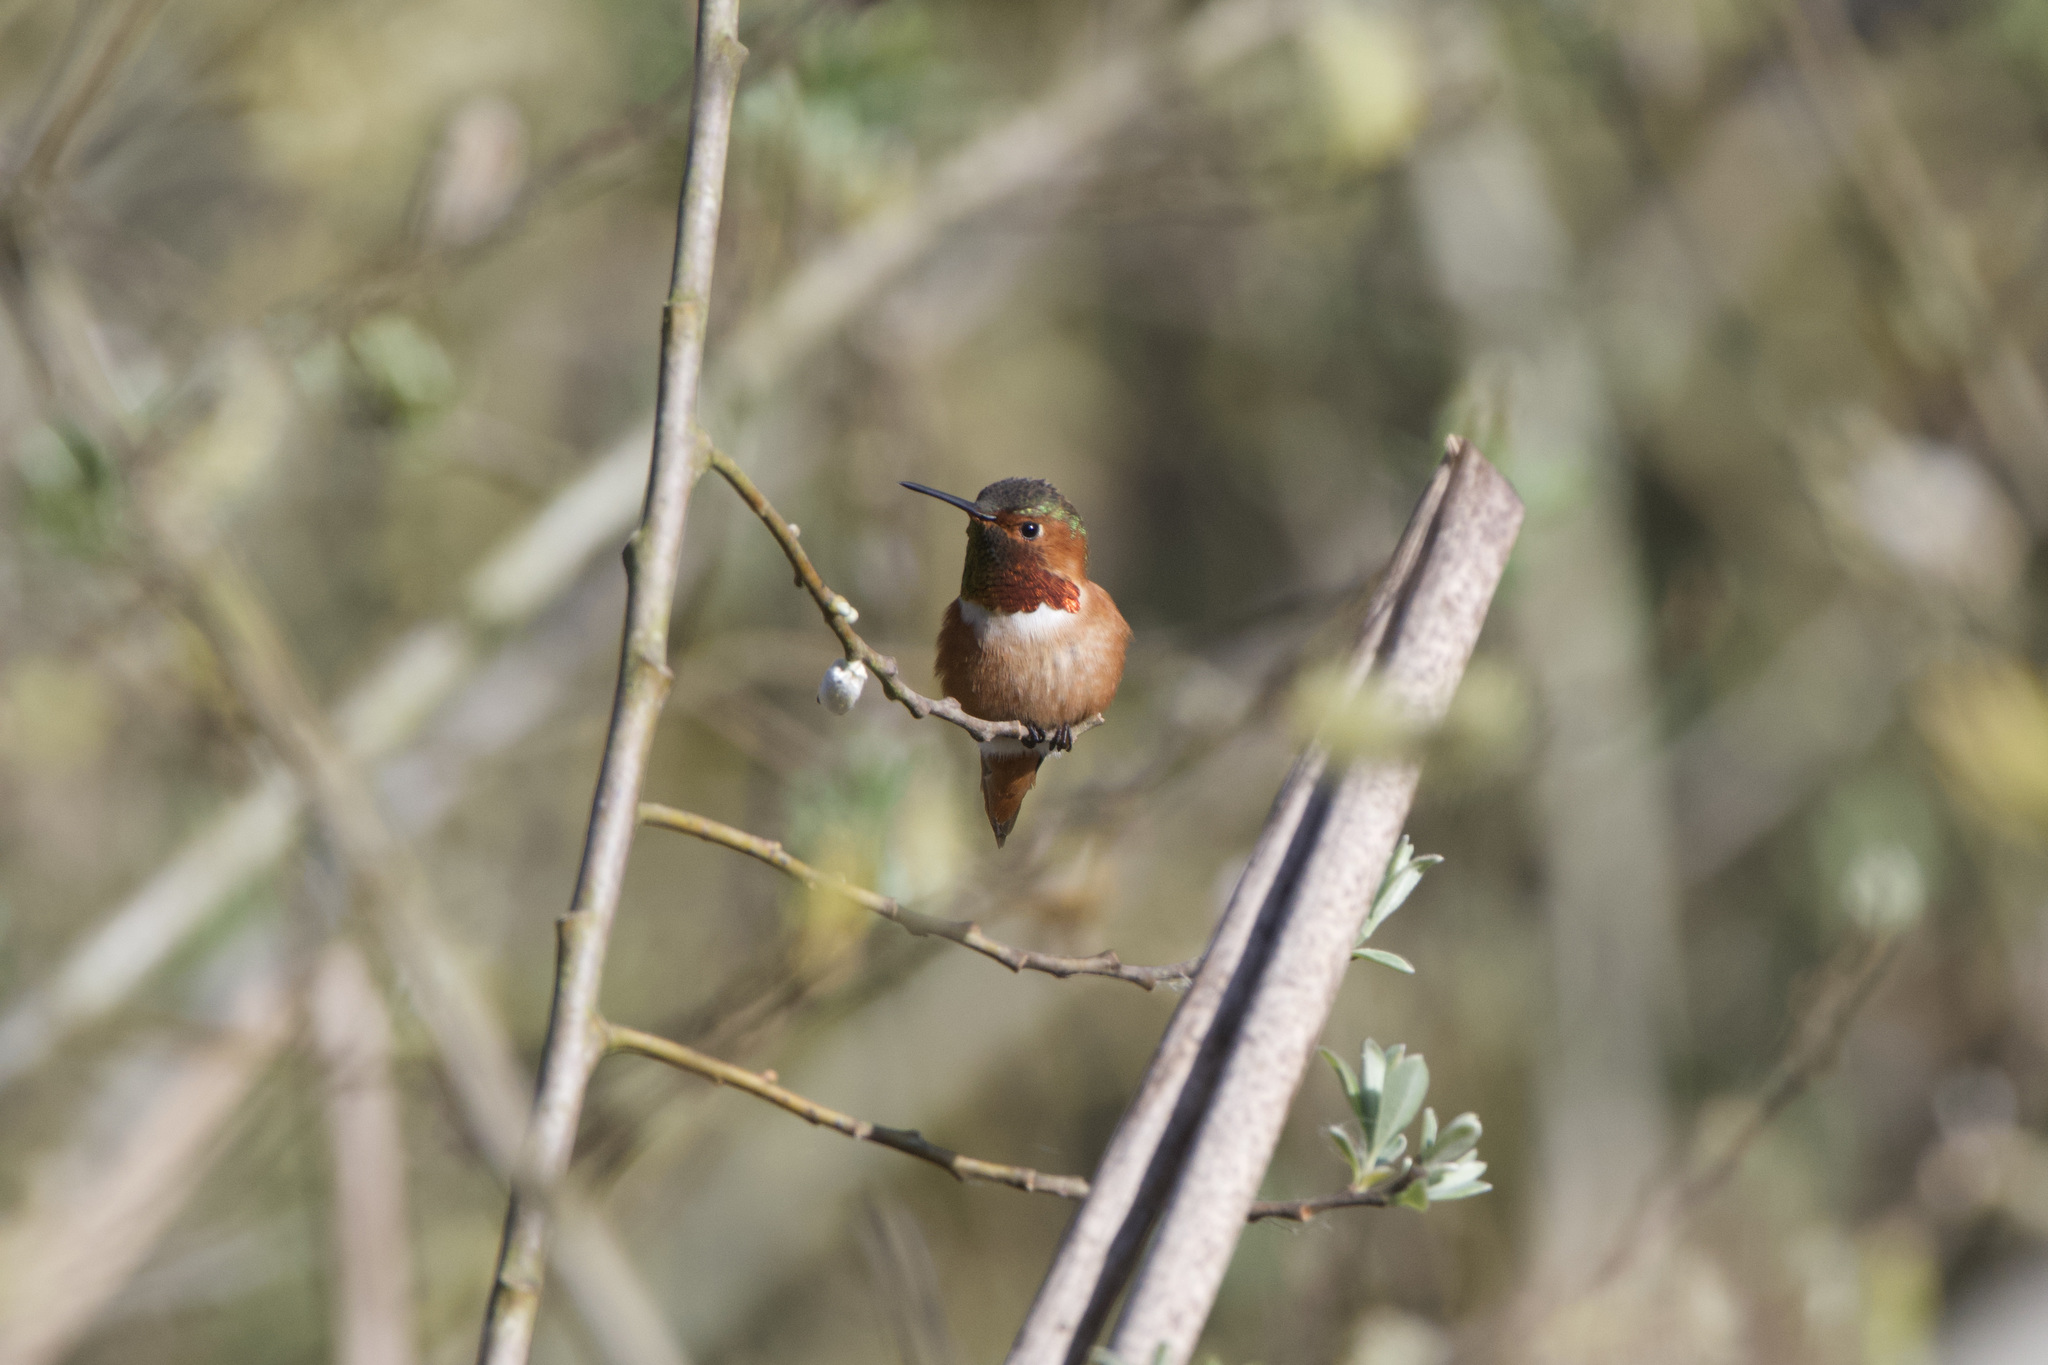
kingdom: Animalia
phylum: Chordata
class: Aves
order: Apodiformes
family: Trochilidae
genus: Selasphorus
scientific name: Selasphorus sasin
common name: Allen's hummingbird
